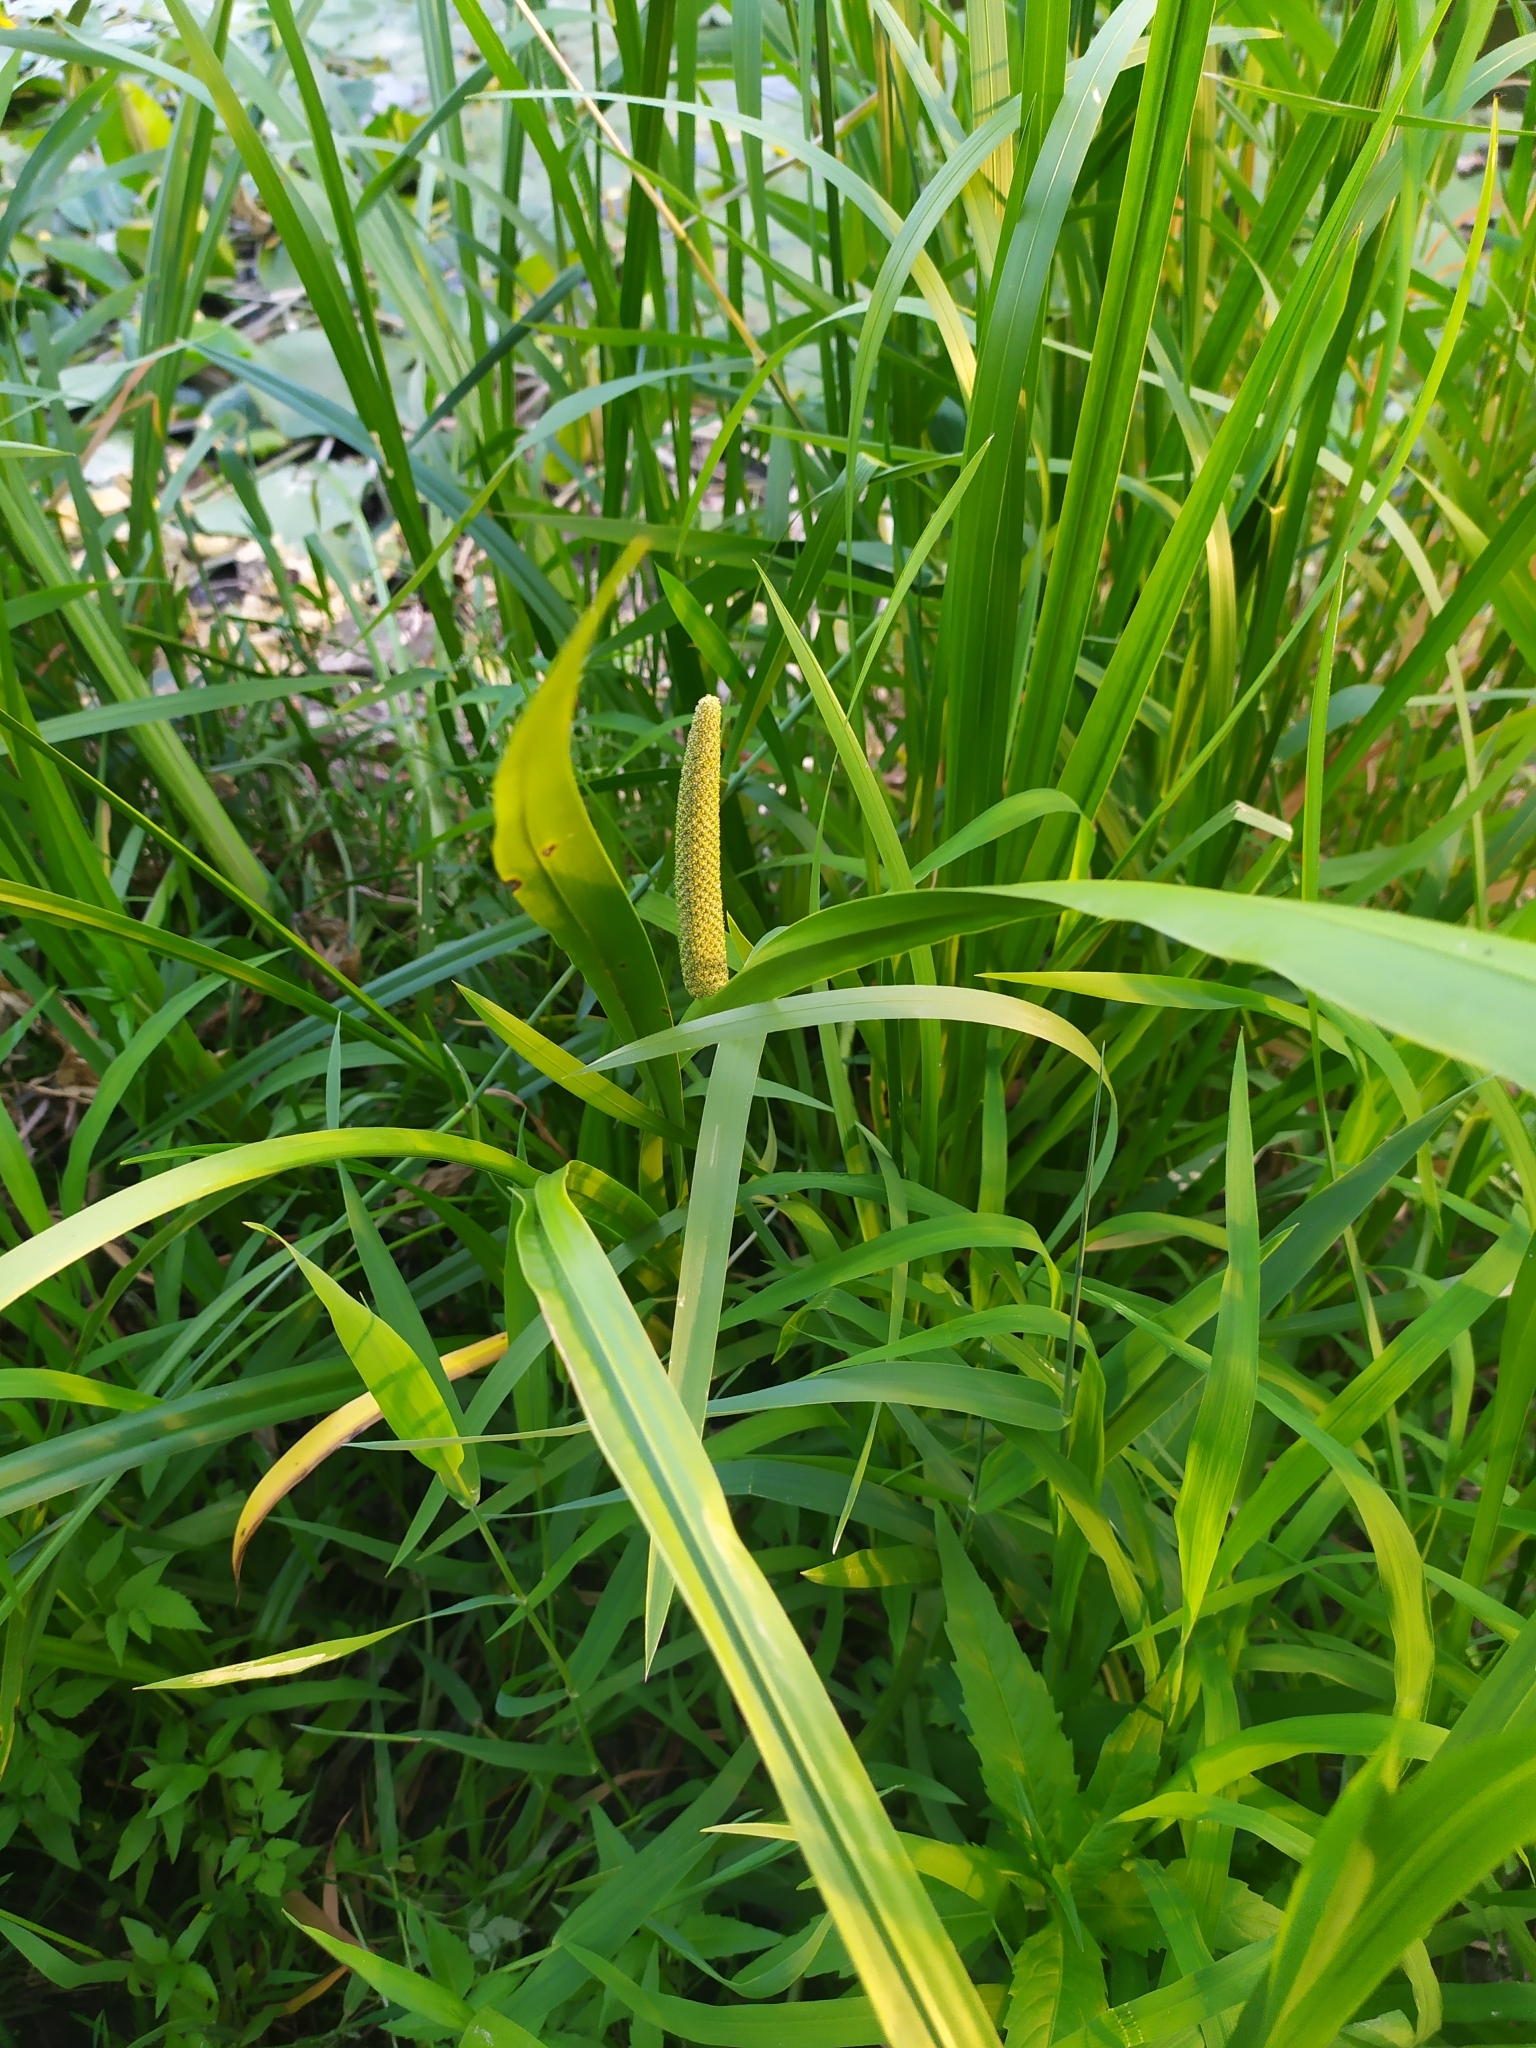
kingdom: Plantae
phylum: Tracheophyta
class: Liliopsida
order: Acorales
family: Acoraceae
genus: Acorus
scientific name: Acorus calamus
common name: Sweet-flag
